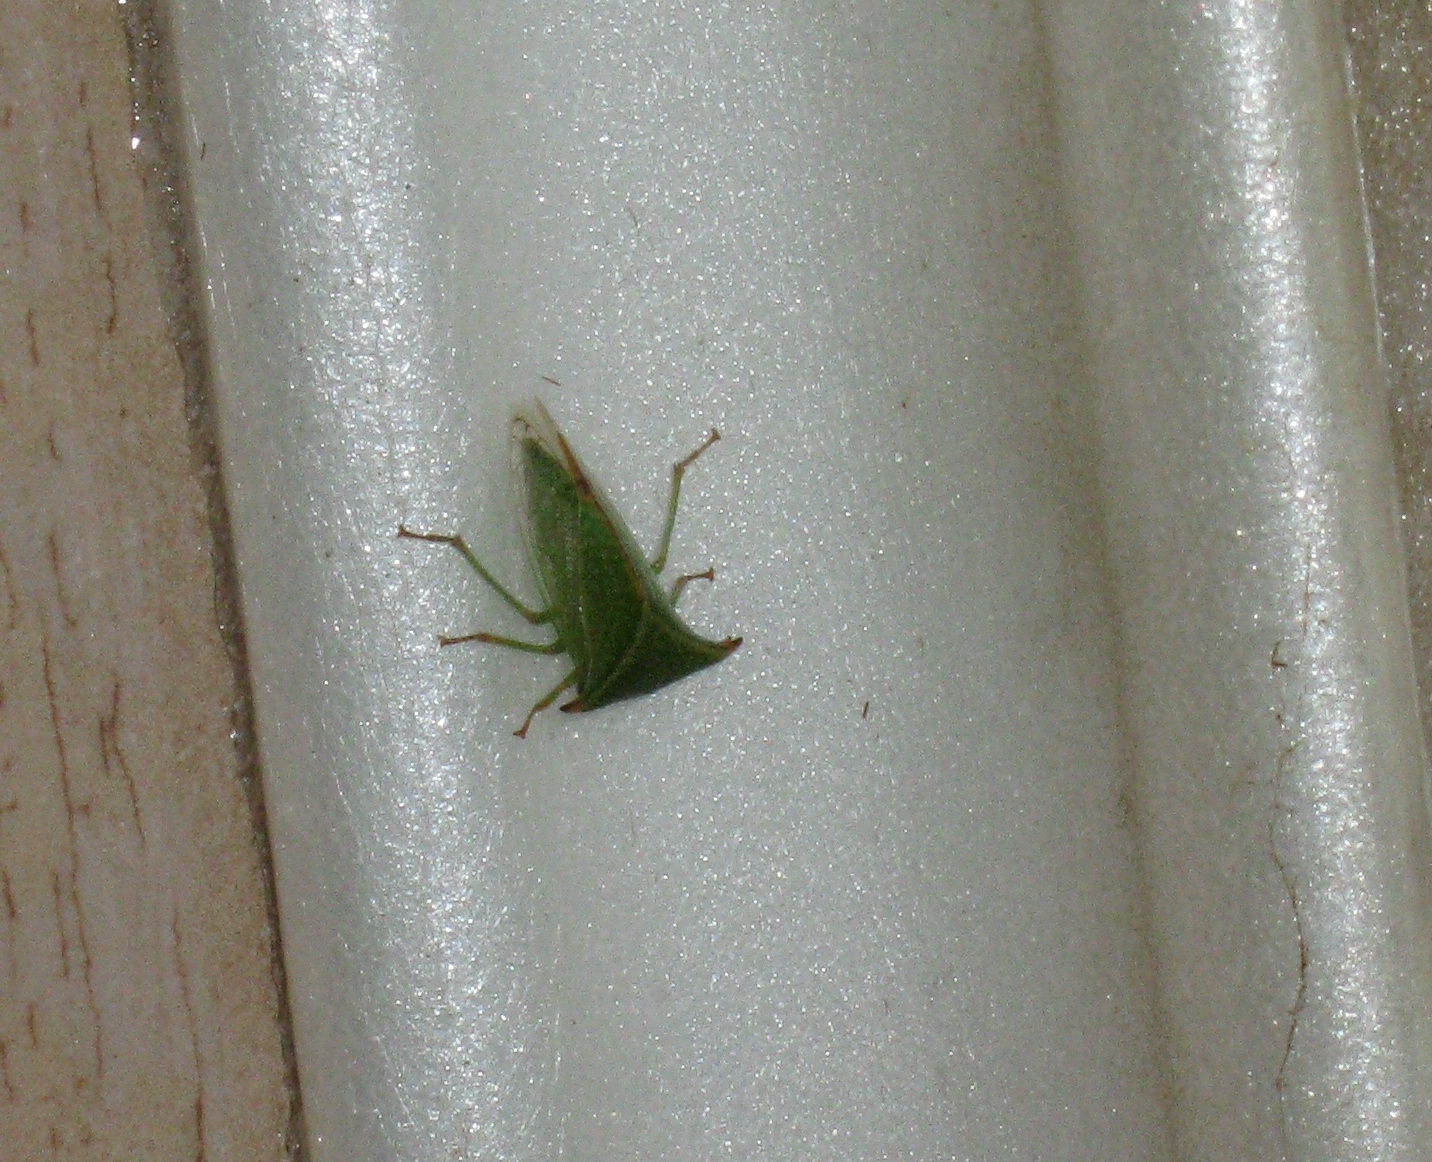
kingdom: Animalia
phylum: Arthropoda
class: Insecta
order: Hemiptera
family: Membracidae
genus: Stictocephala
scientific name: Stictocephala bisonia
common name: American buffalo treehopper
